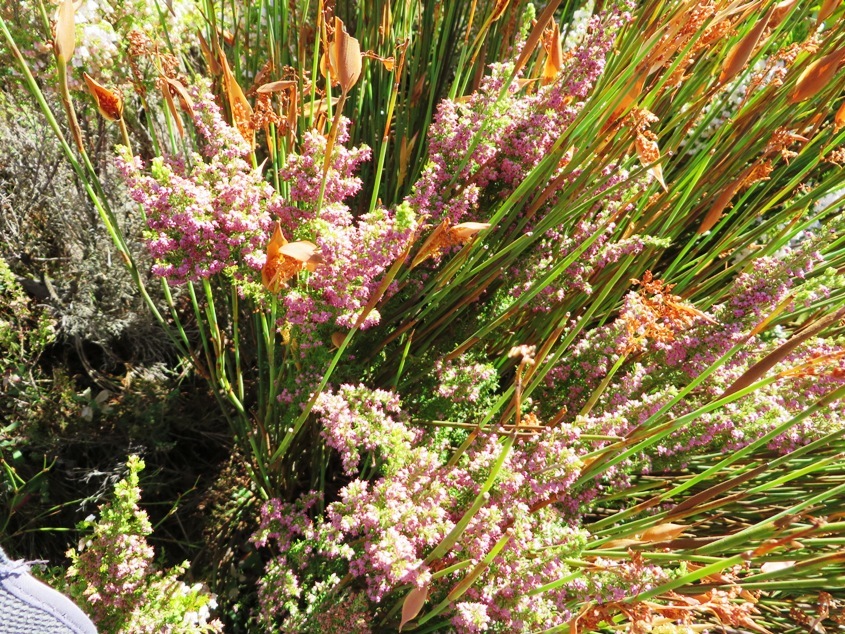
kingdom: Plantae
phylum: Tracheophyta
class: Magnoliopsida
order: Ericales
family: Ericaceae
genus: Erica
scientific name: Erica hottentotica
